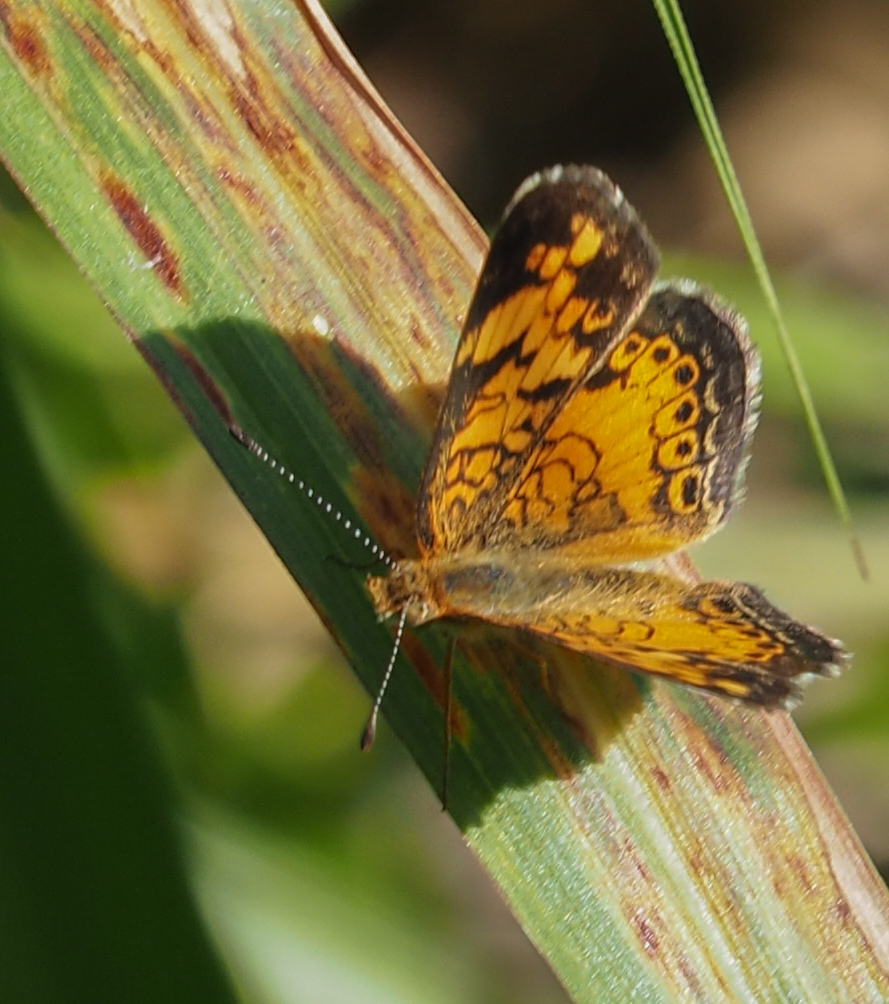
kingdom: Animalia
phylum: Arthropoda
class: Insecta
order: Lepidoptera
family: Nymphalidae
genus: Phyciodes
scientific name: Phyciodes tharos
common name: Pearl crescent
